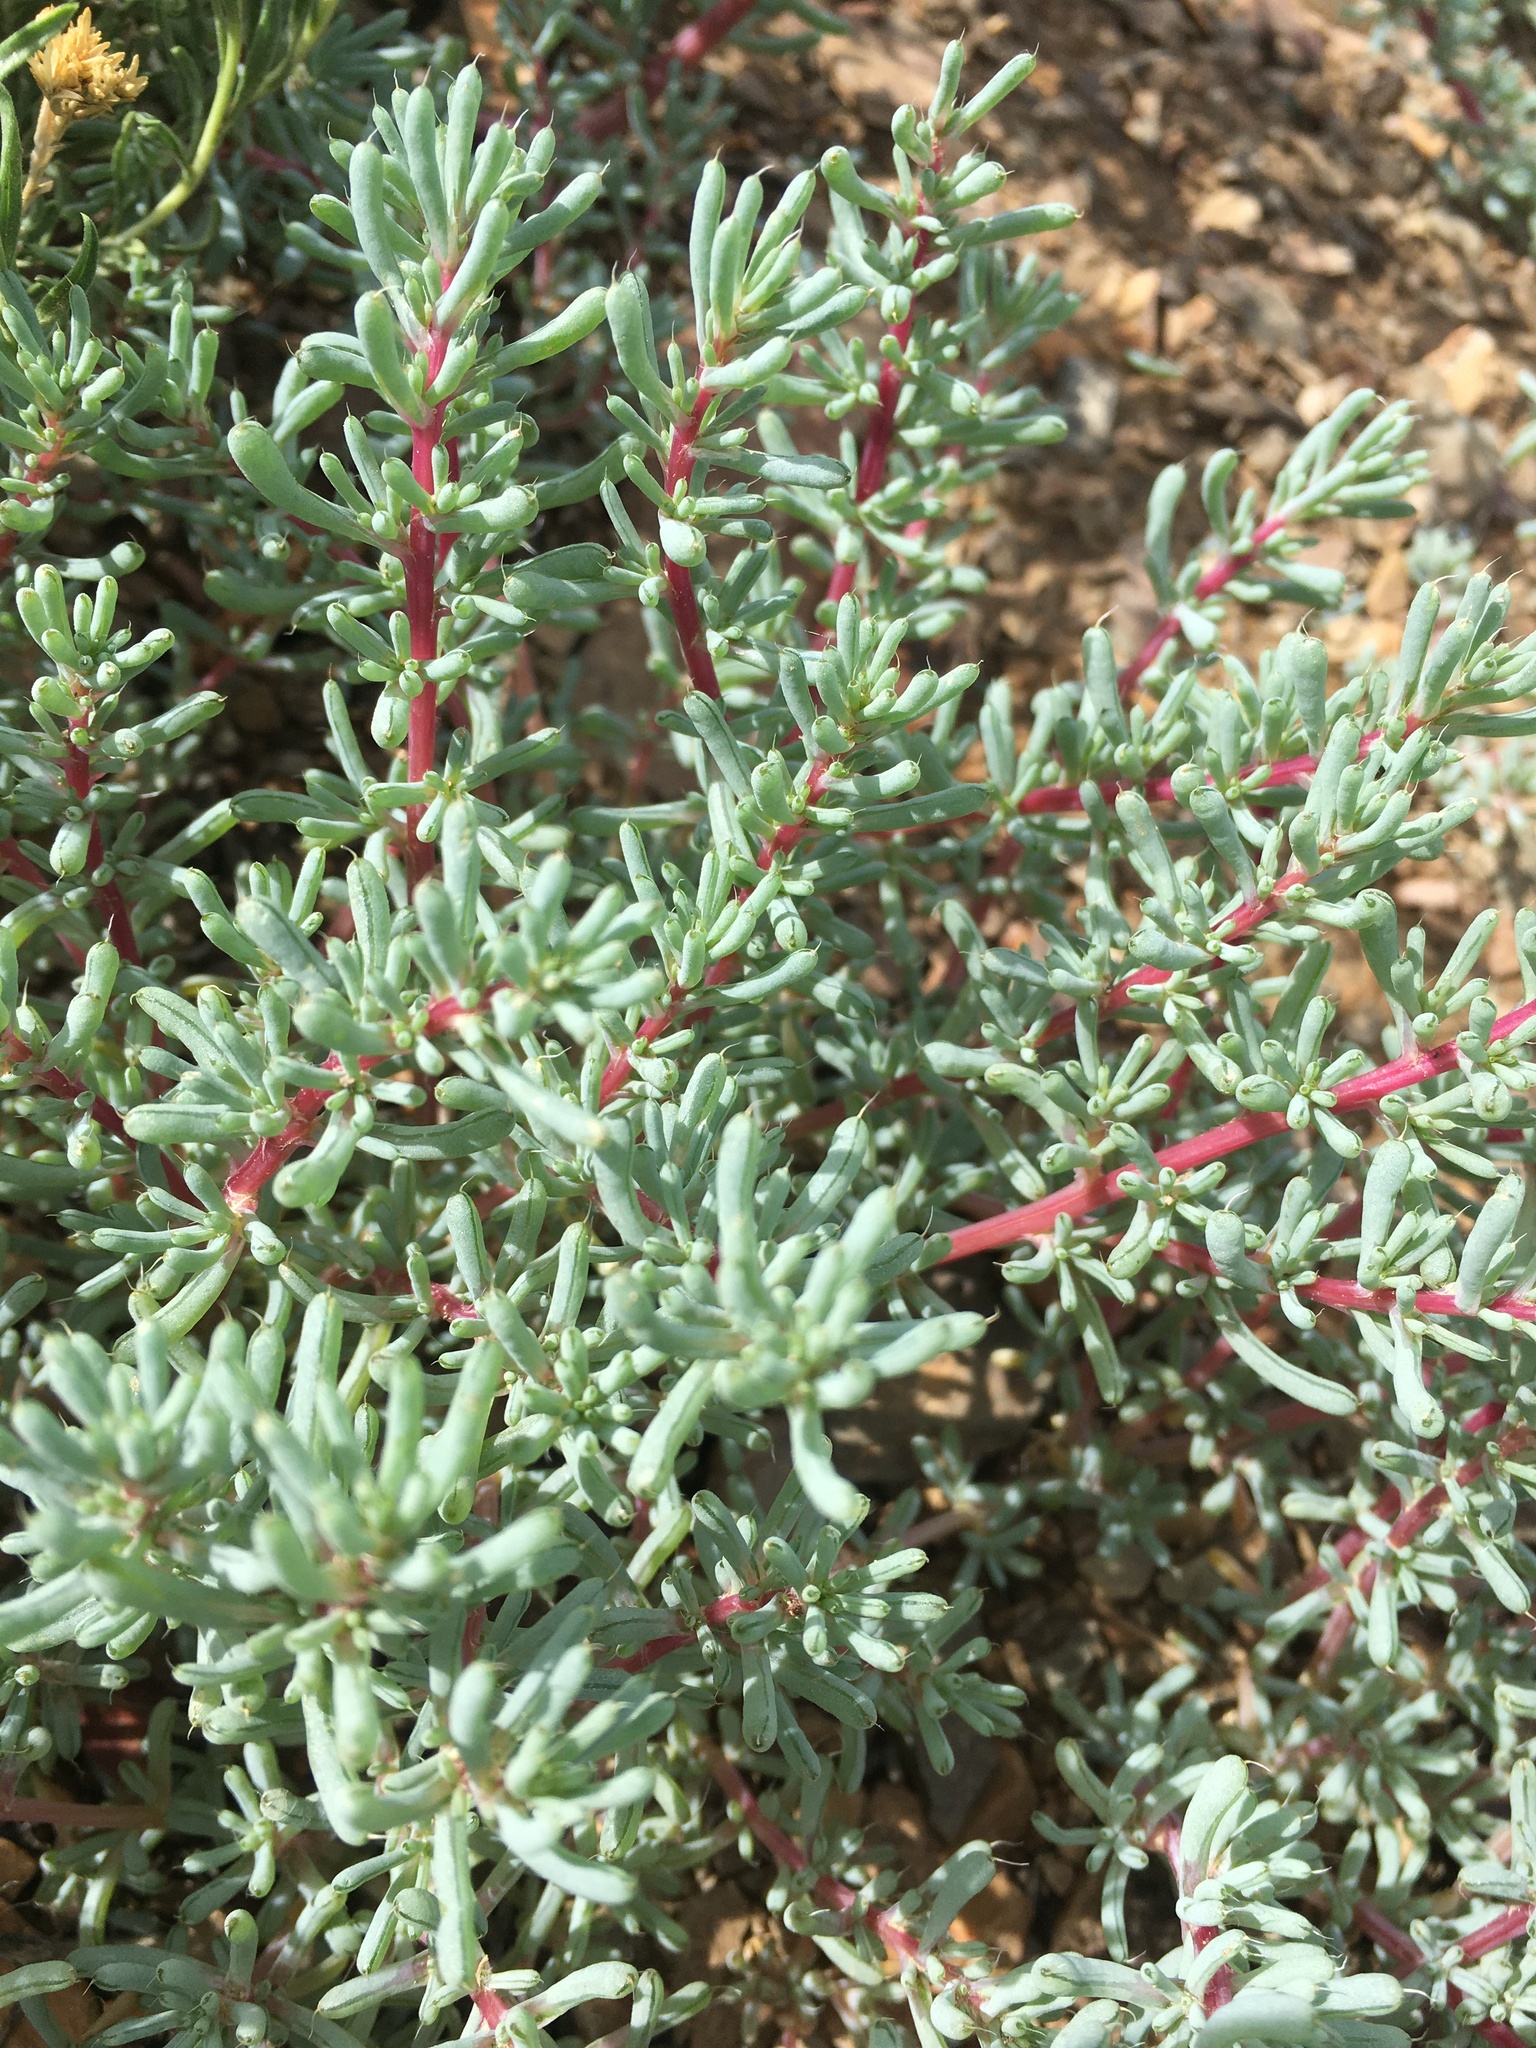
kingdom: Plantae
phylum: Tracheophyta
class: Magnoliopsida
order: Caryophyllales
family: Amaranthaceae
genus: Halogeton
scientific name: Halogeton glomeratus
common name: Saltlover
